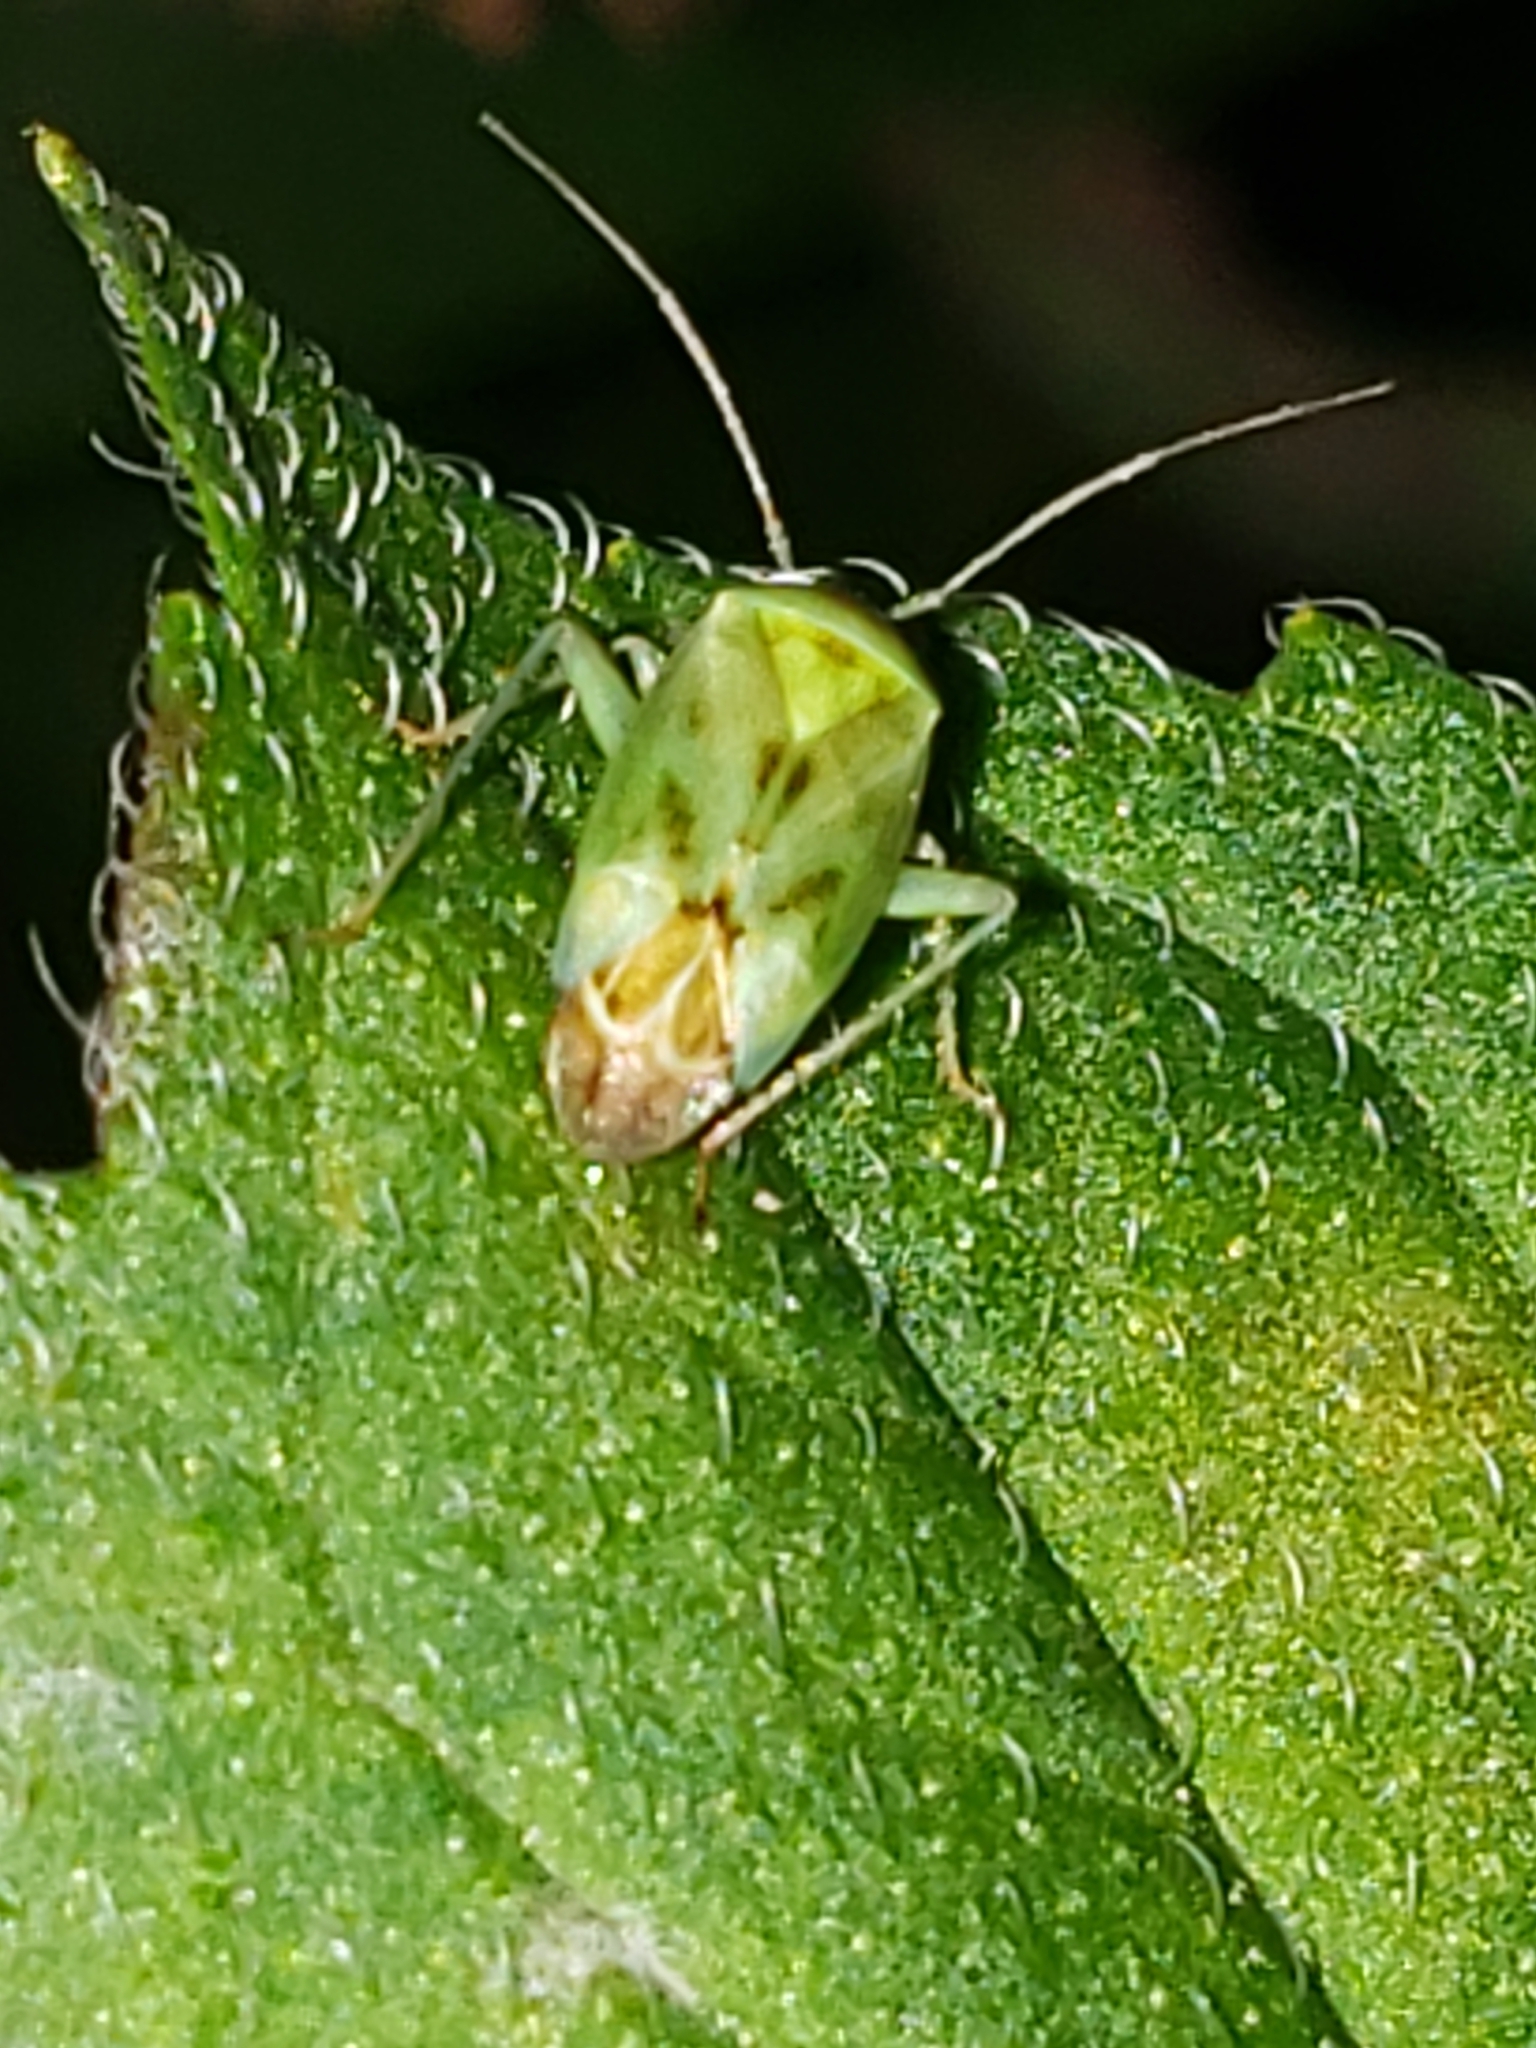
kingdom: Animalia
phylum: Arthropoda
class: Insecta
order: Hemiptera
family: Miridae
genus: Taylorilygus
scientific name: Taylorilygus apicalis
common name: Plant bug
